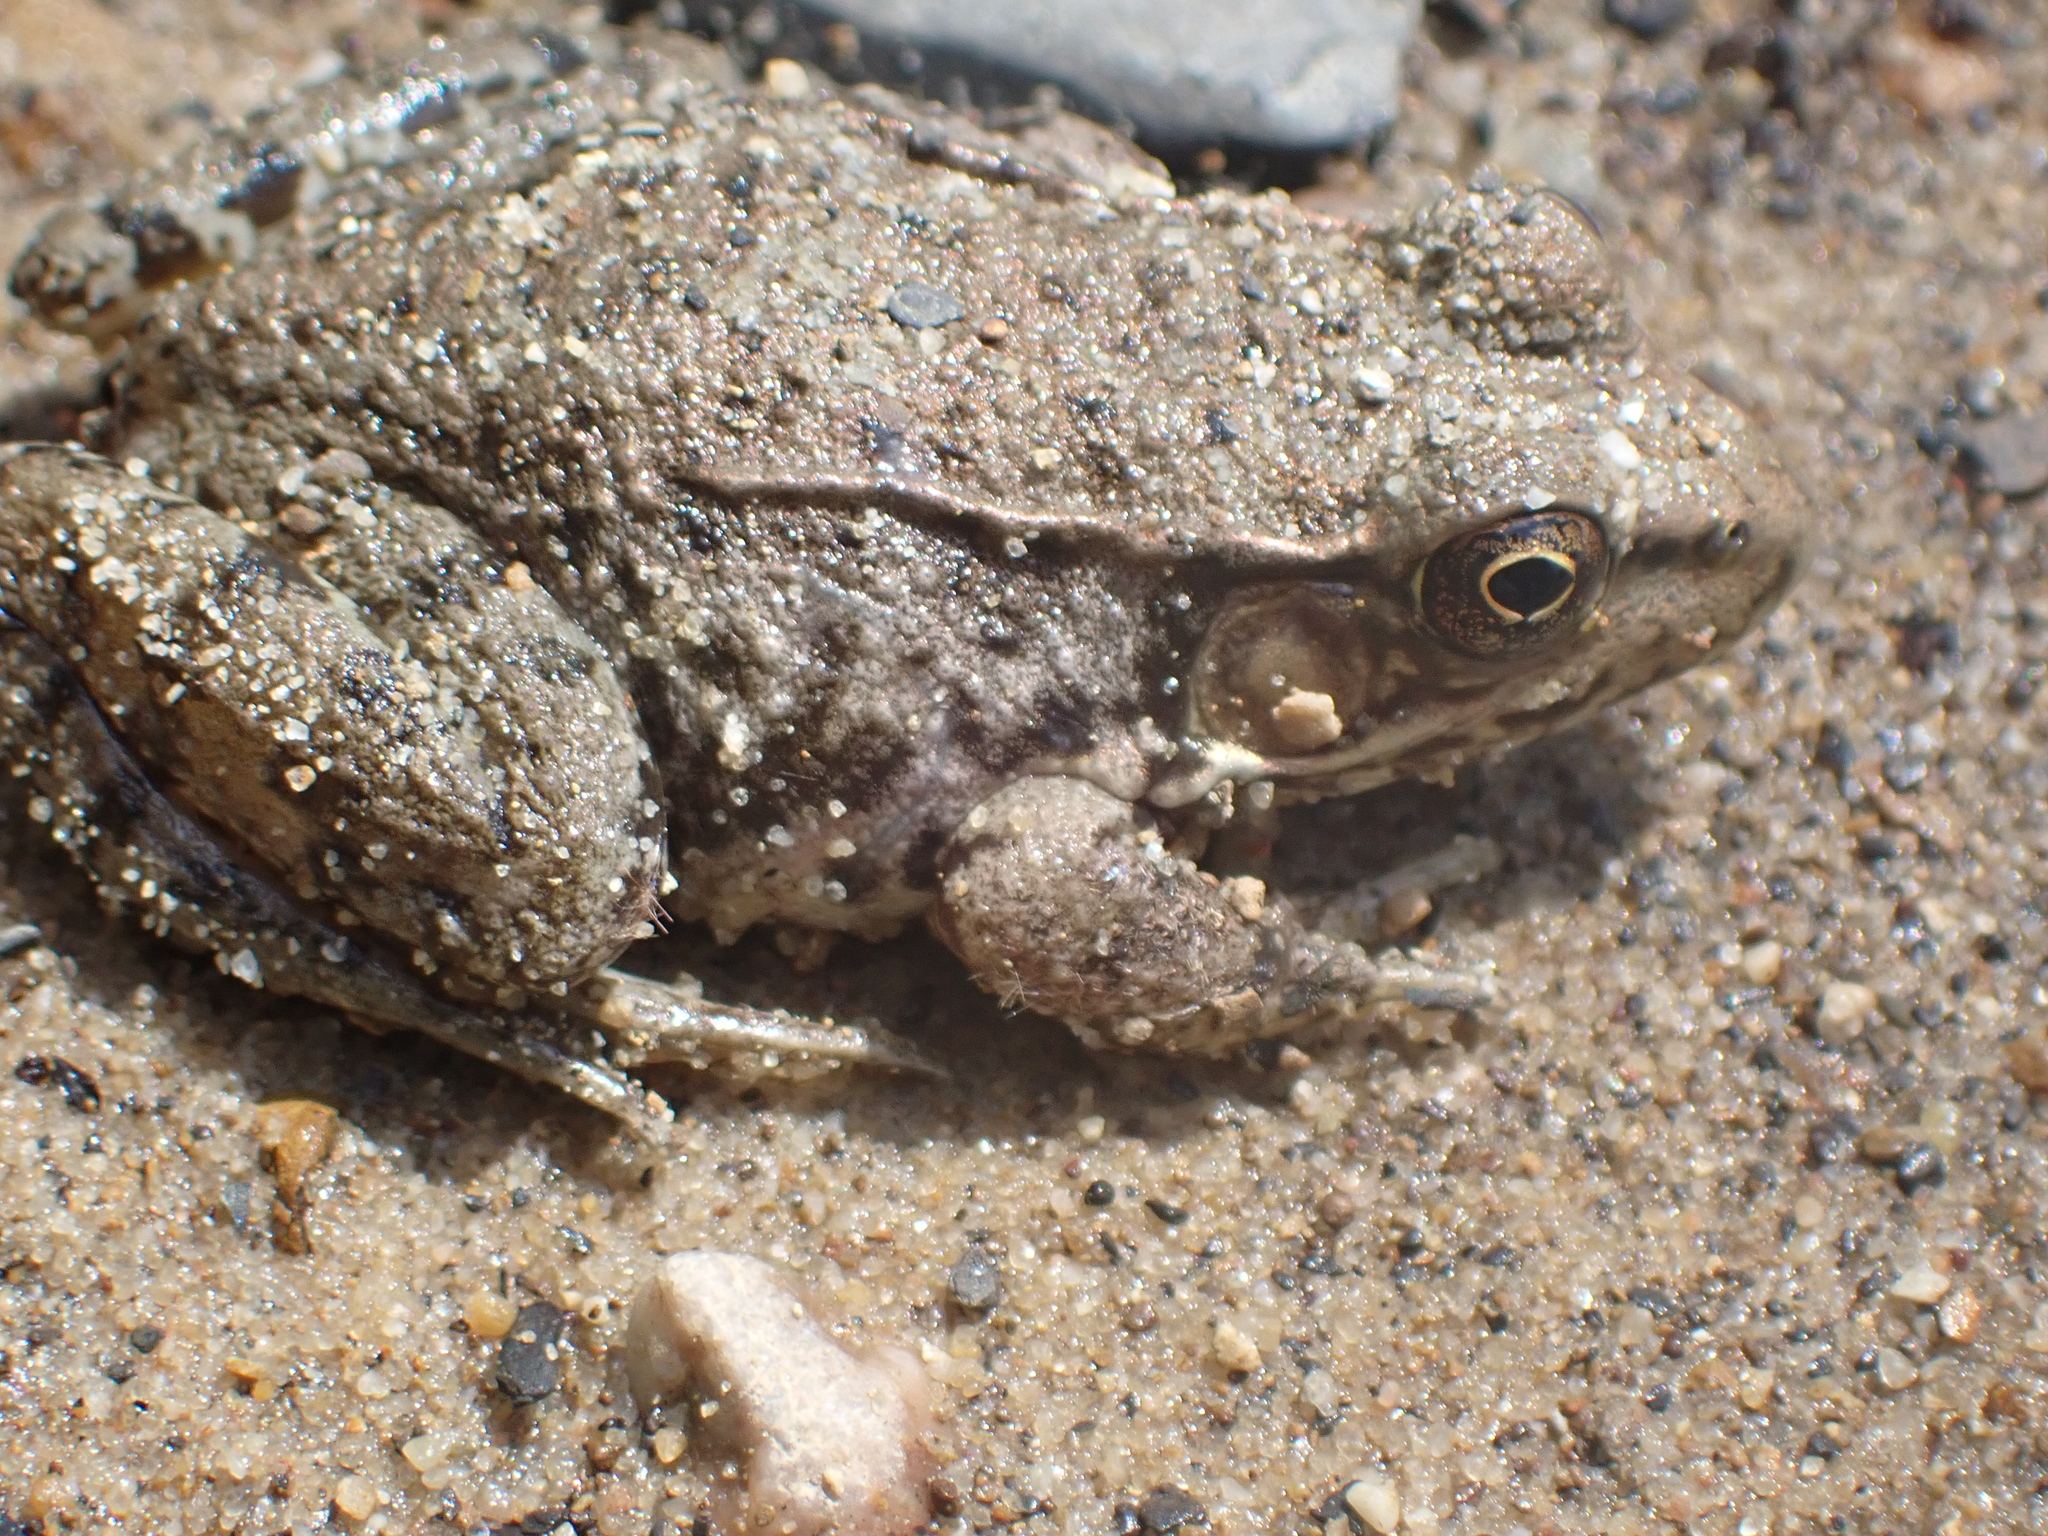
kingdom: Animalia
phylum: Chordata
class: Amphibia
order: Anura
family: Ranidae
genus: Lithobates
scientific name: Lithobates clamitans
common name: Green frog
